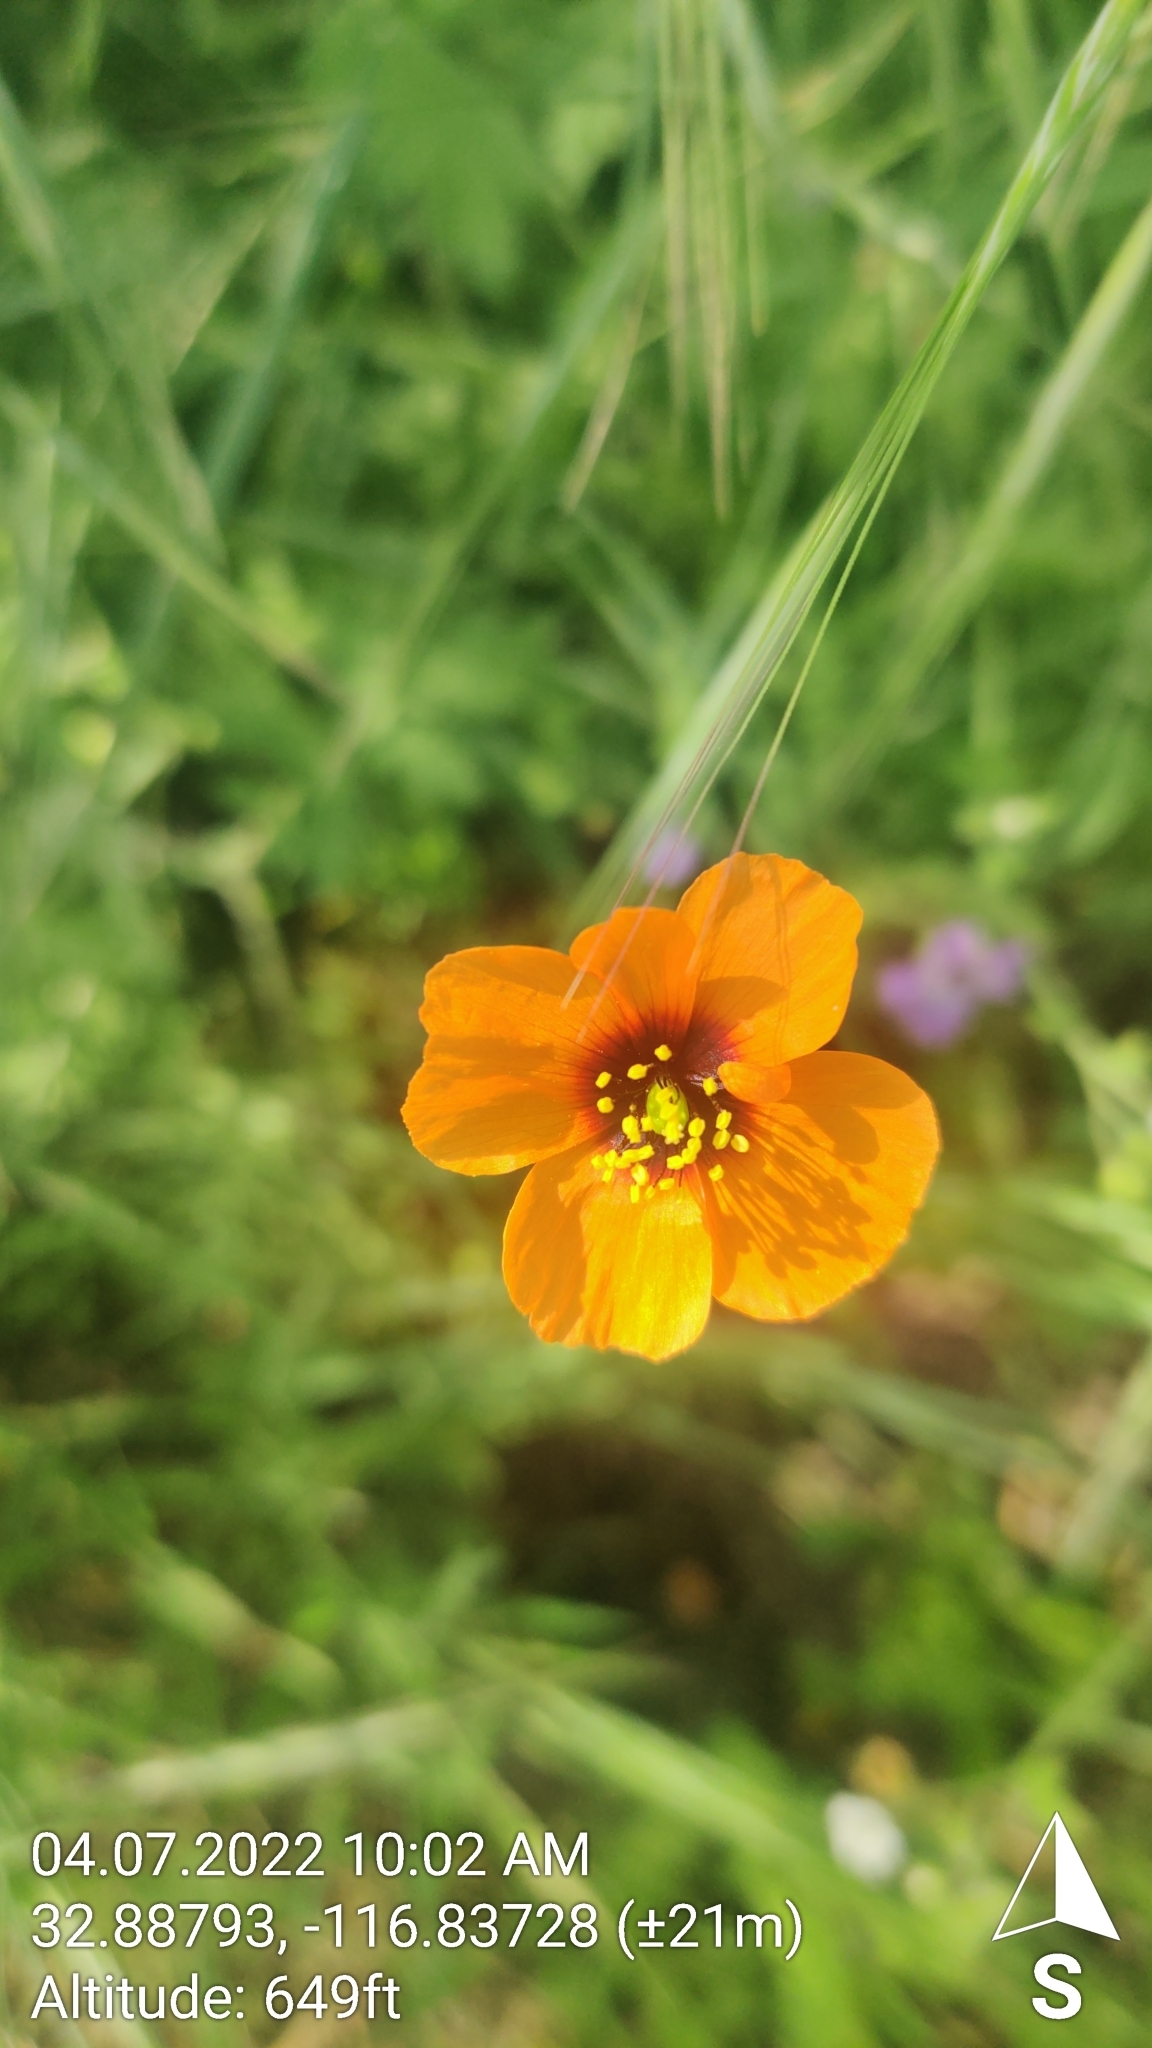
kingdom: Plantae
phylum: Tracheophyta
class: Magnoliopsida
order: Ranunculales
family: Papaveraceae
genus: Stylomecon
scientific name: Stylomecon heterophylla
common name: Flaming-poppy
